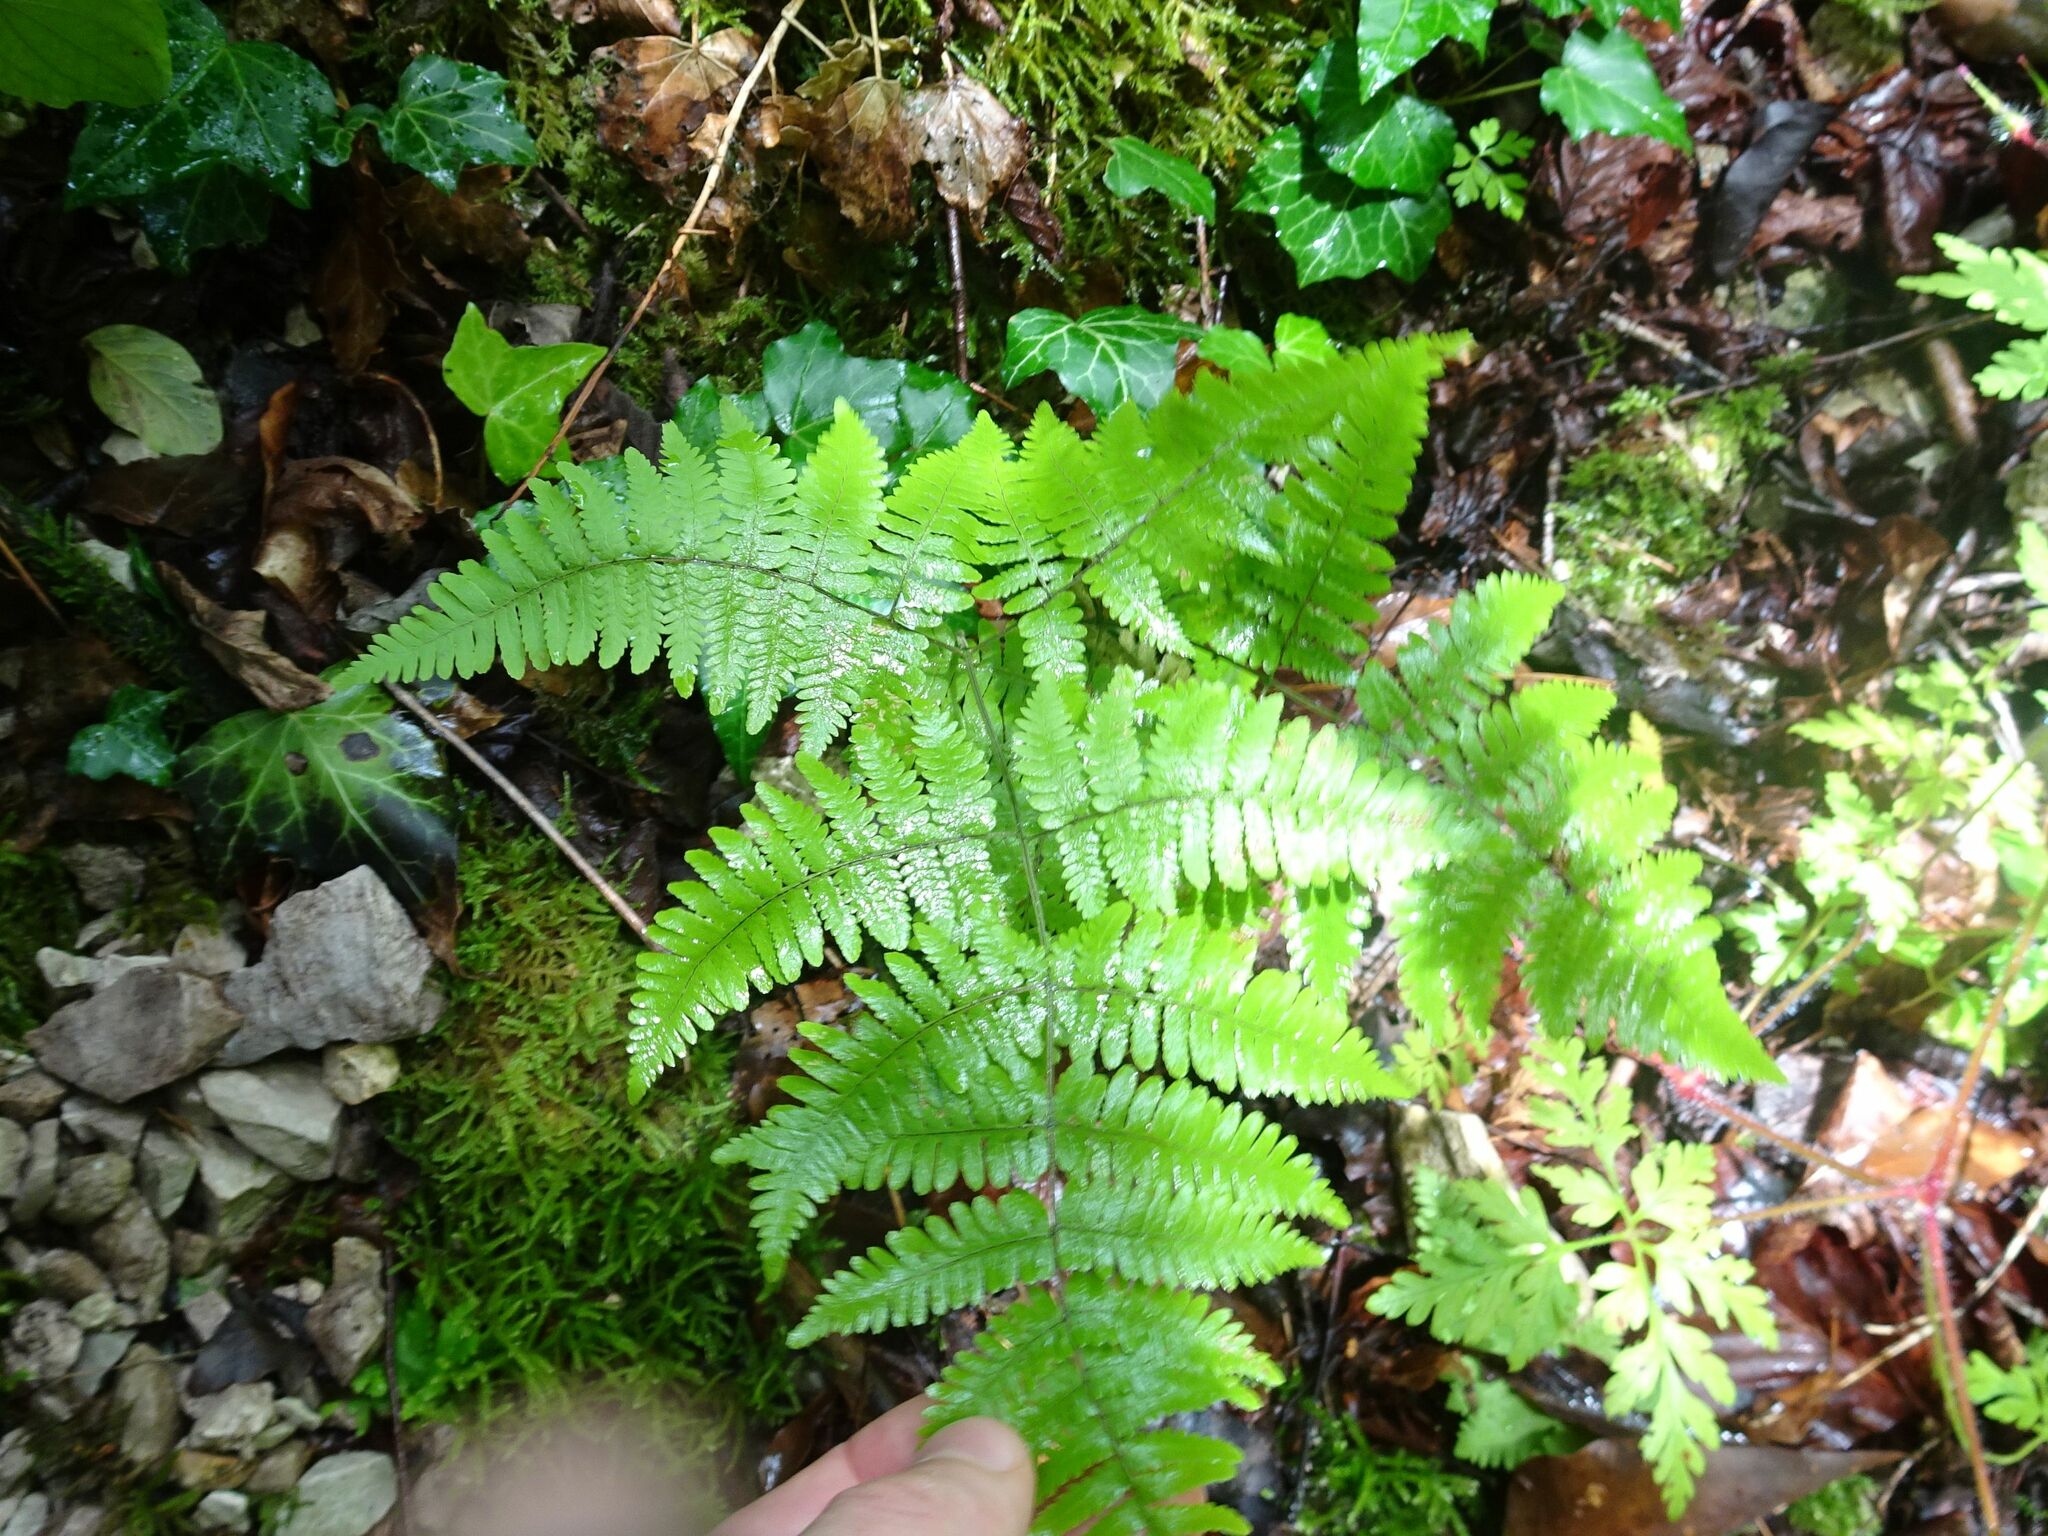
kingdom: Plantae
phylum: Tracheophyta
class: Polypodiopsida
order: Polypodiales
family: Cystopteridaceae
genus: Gymnocarpium
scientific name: Gymnocarpium robertianum
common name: Limestone fern
